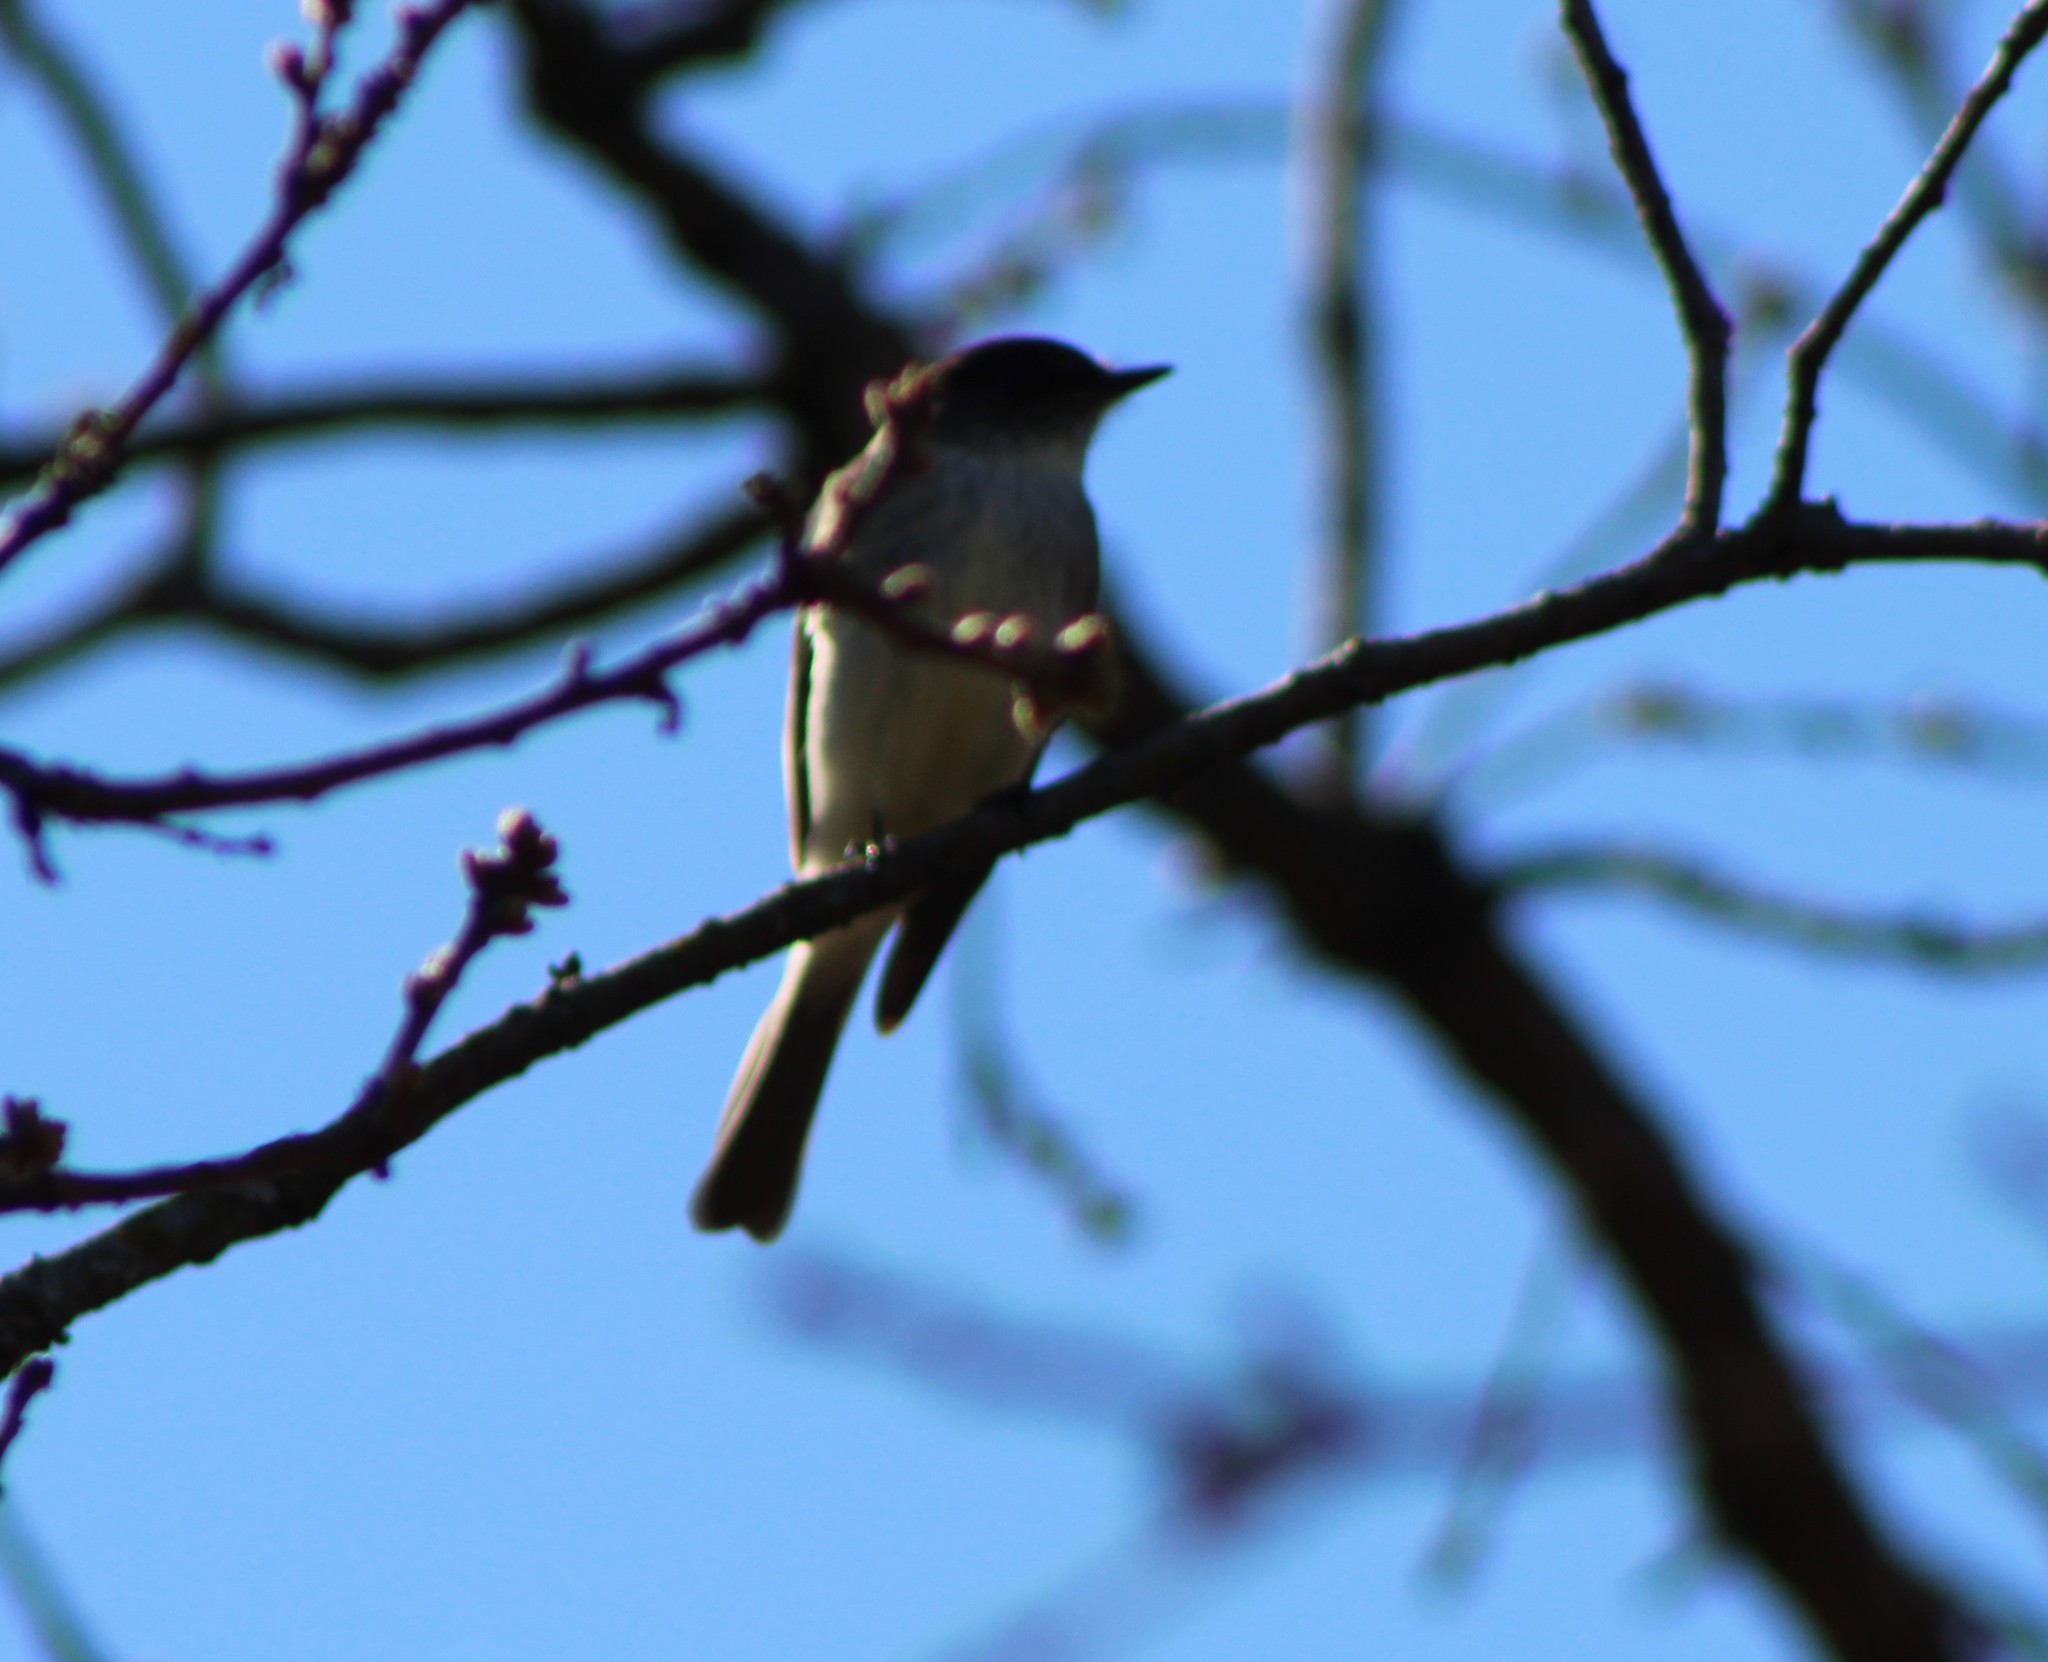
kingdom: Animalia
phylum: Chordata
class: Aves
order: Passeriformes
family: Tyrannidae
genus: Sayornis
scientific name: Sayornis phoebe
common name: Eastern phoebe
